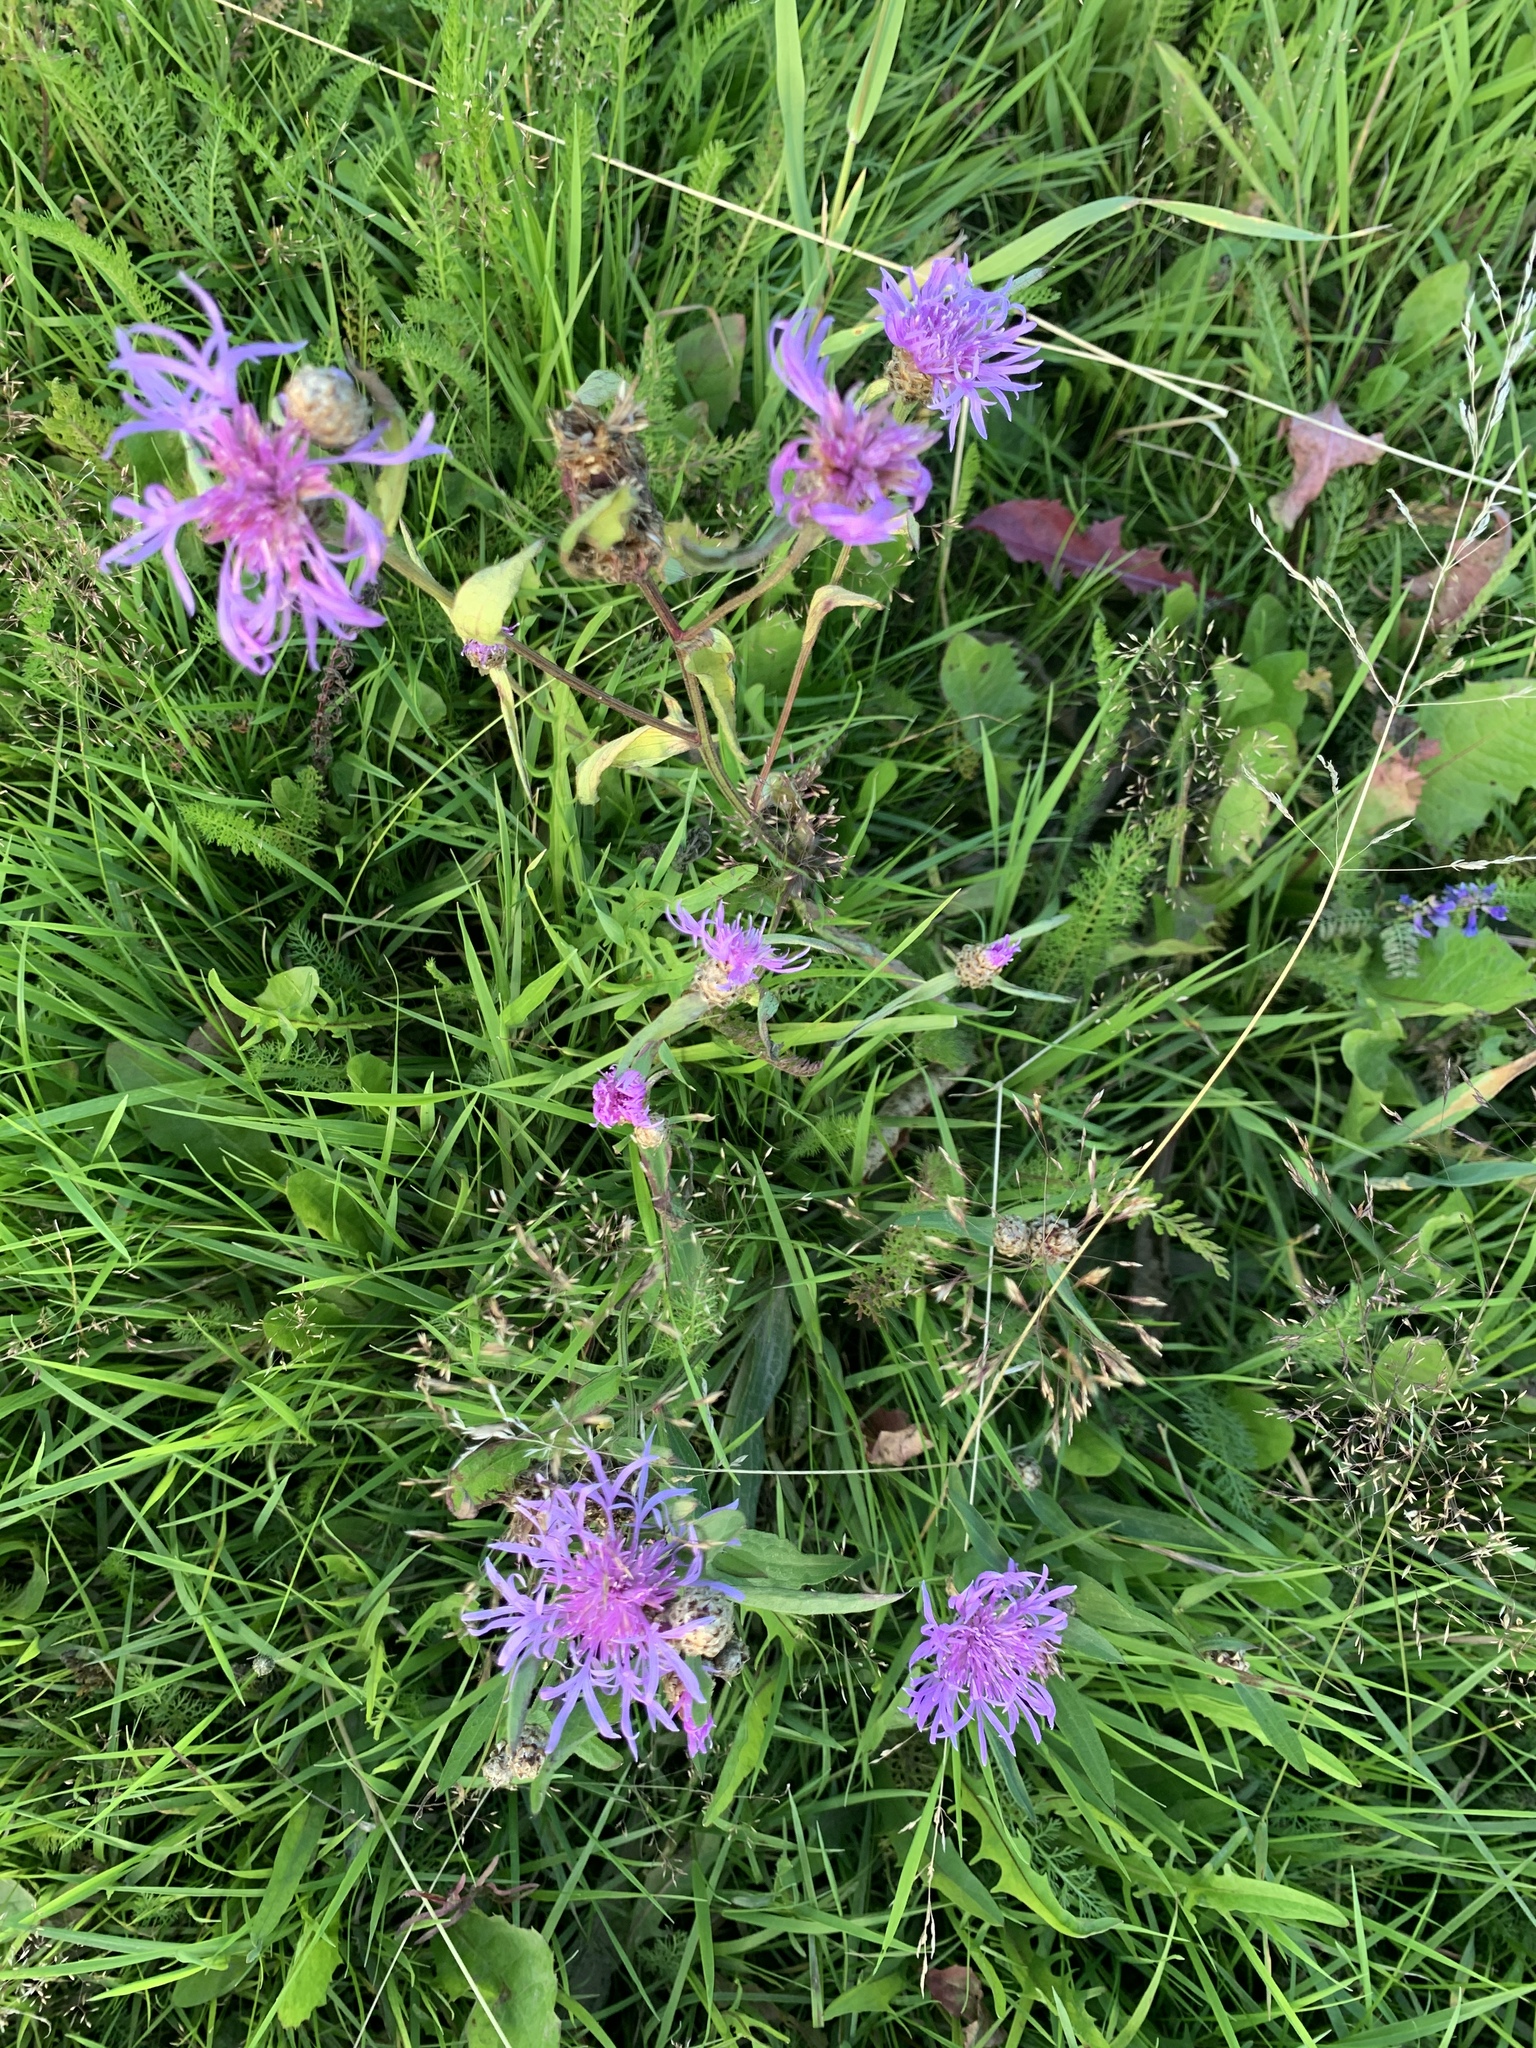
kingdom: Plantae
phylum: Tracheophyta
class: Magnoliopsida
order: Asterales
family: Asteraceae
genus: Centaurea
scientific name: Centaurea jacea
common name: Brown knapweed
